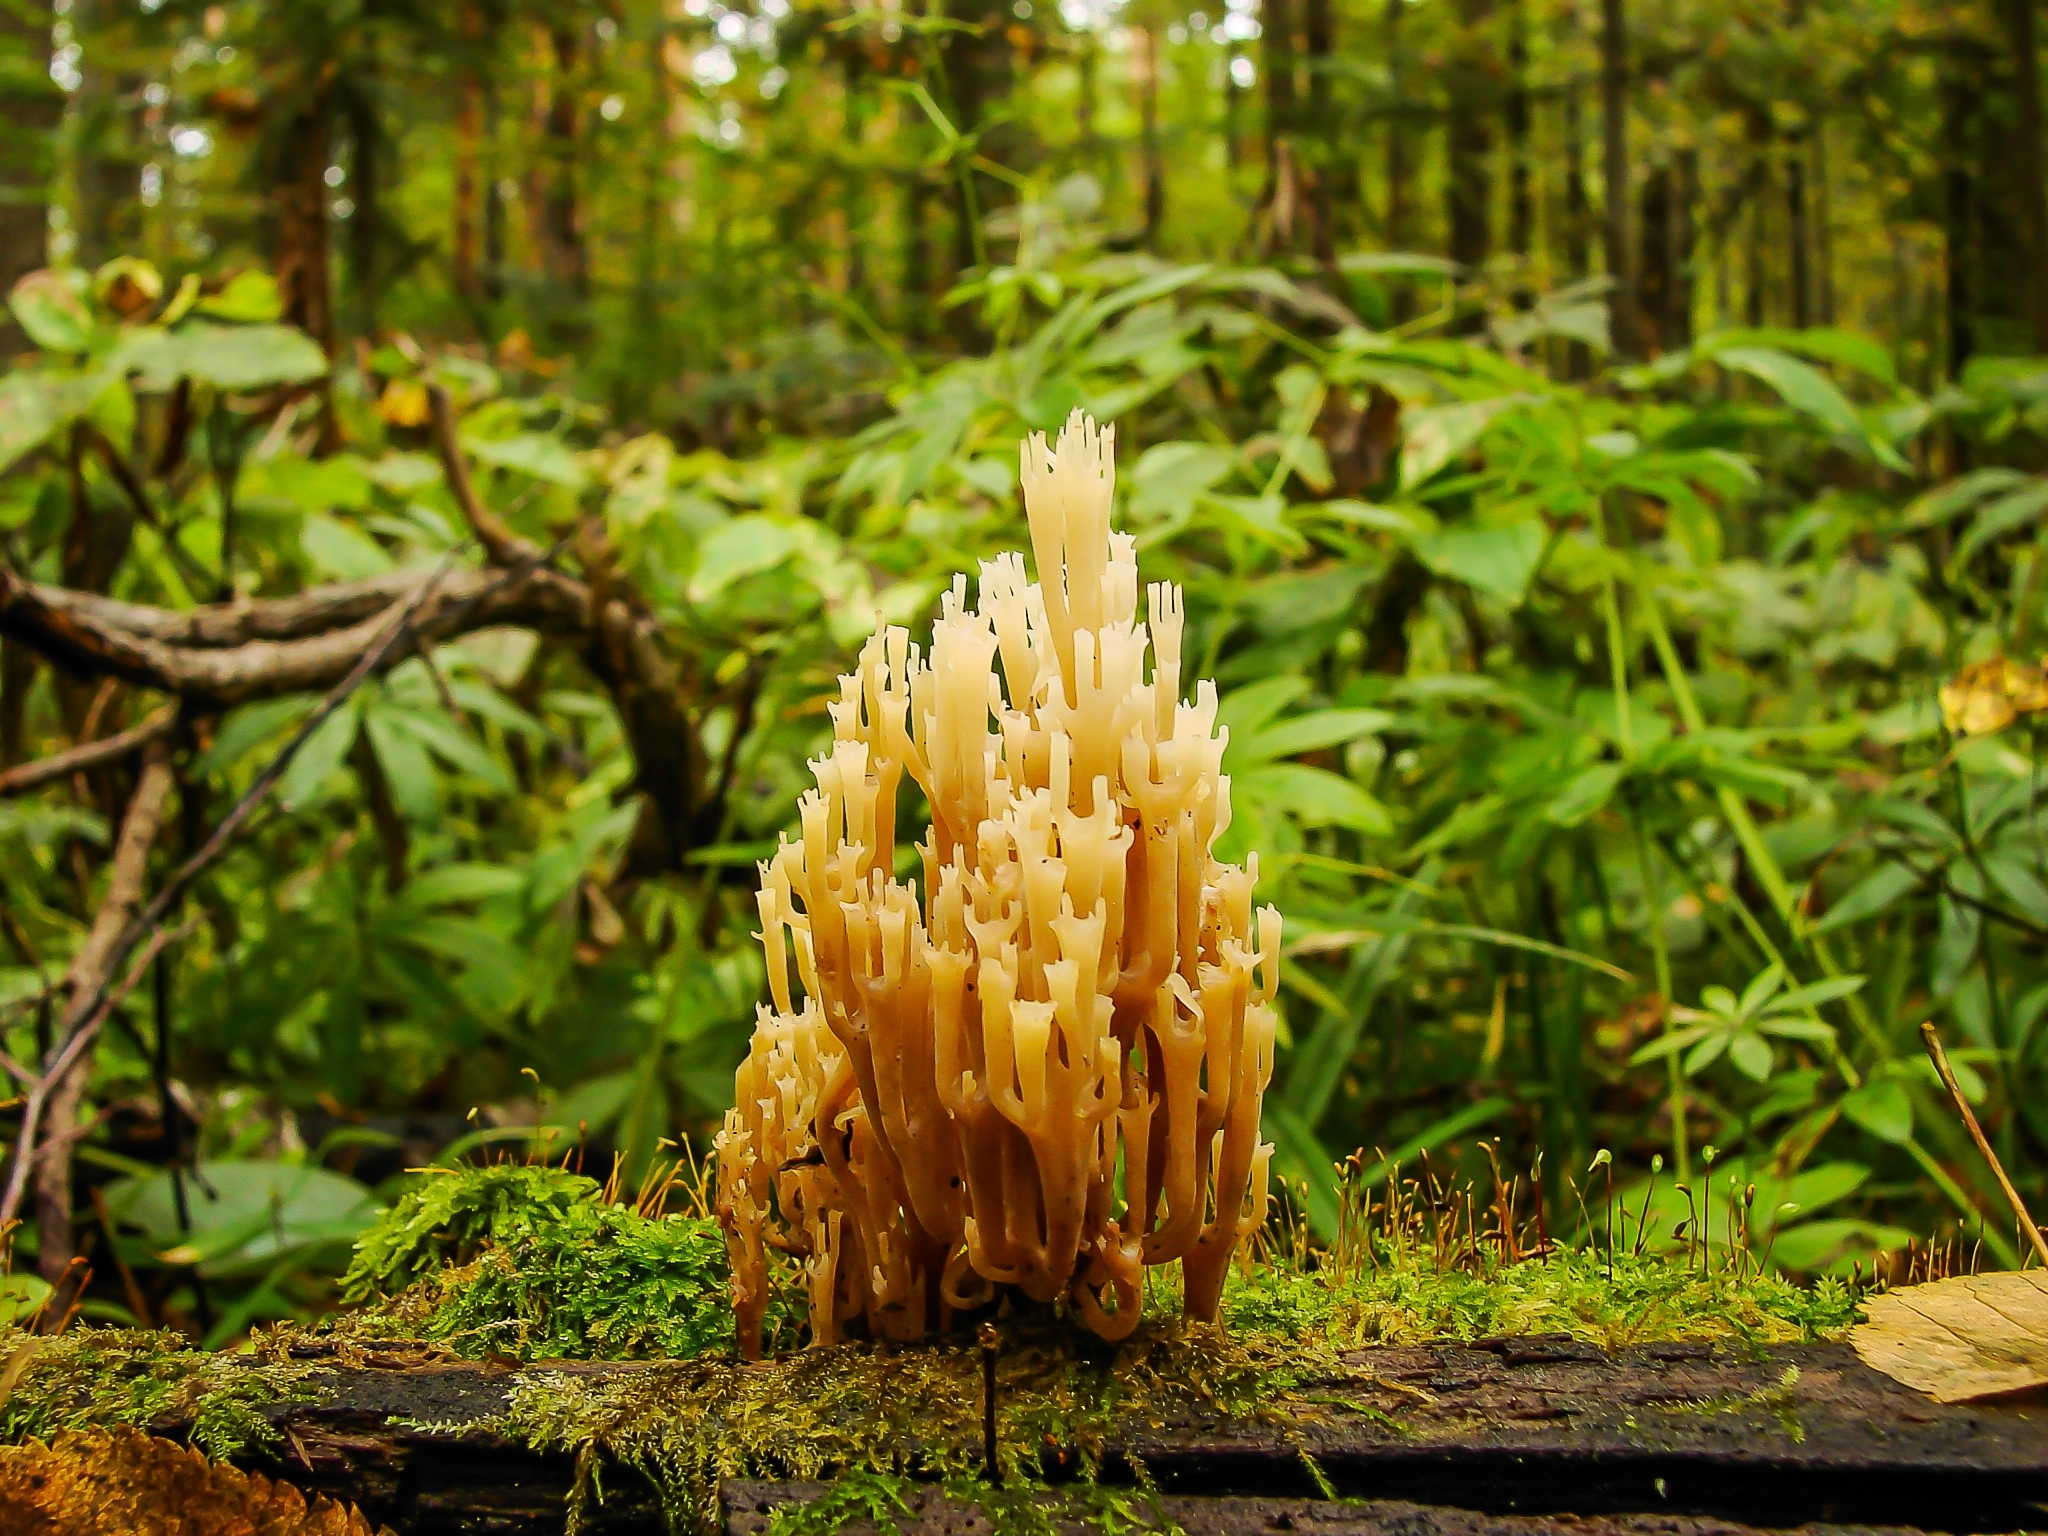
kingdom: Fungi
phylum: Basidiomycota
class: Agaricomycetes
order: Russulales
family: Auriscalpiaceae
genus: Artomyces
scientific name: Artomyces pyxidatus
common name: Crown-tipped coral fungus
